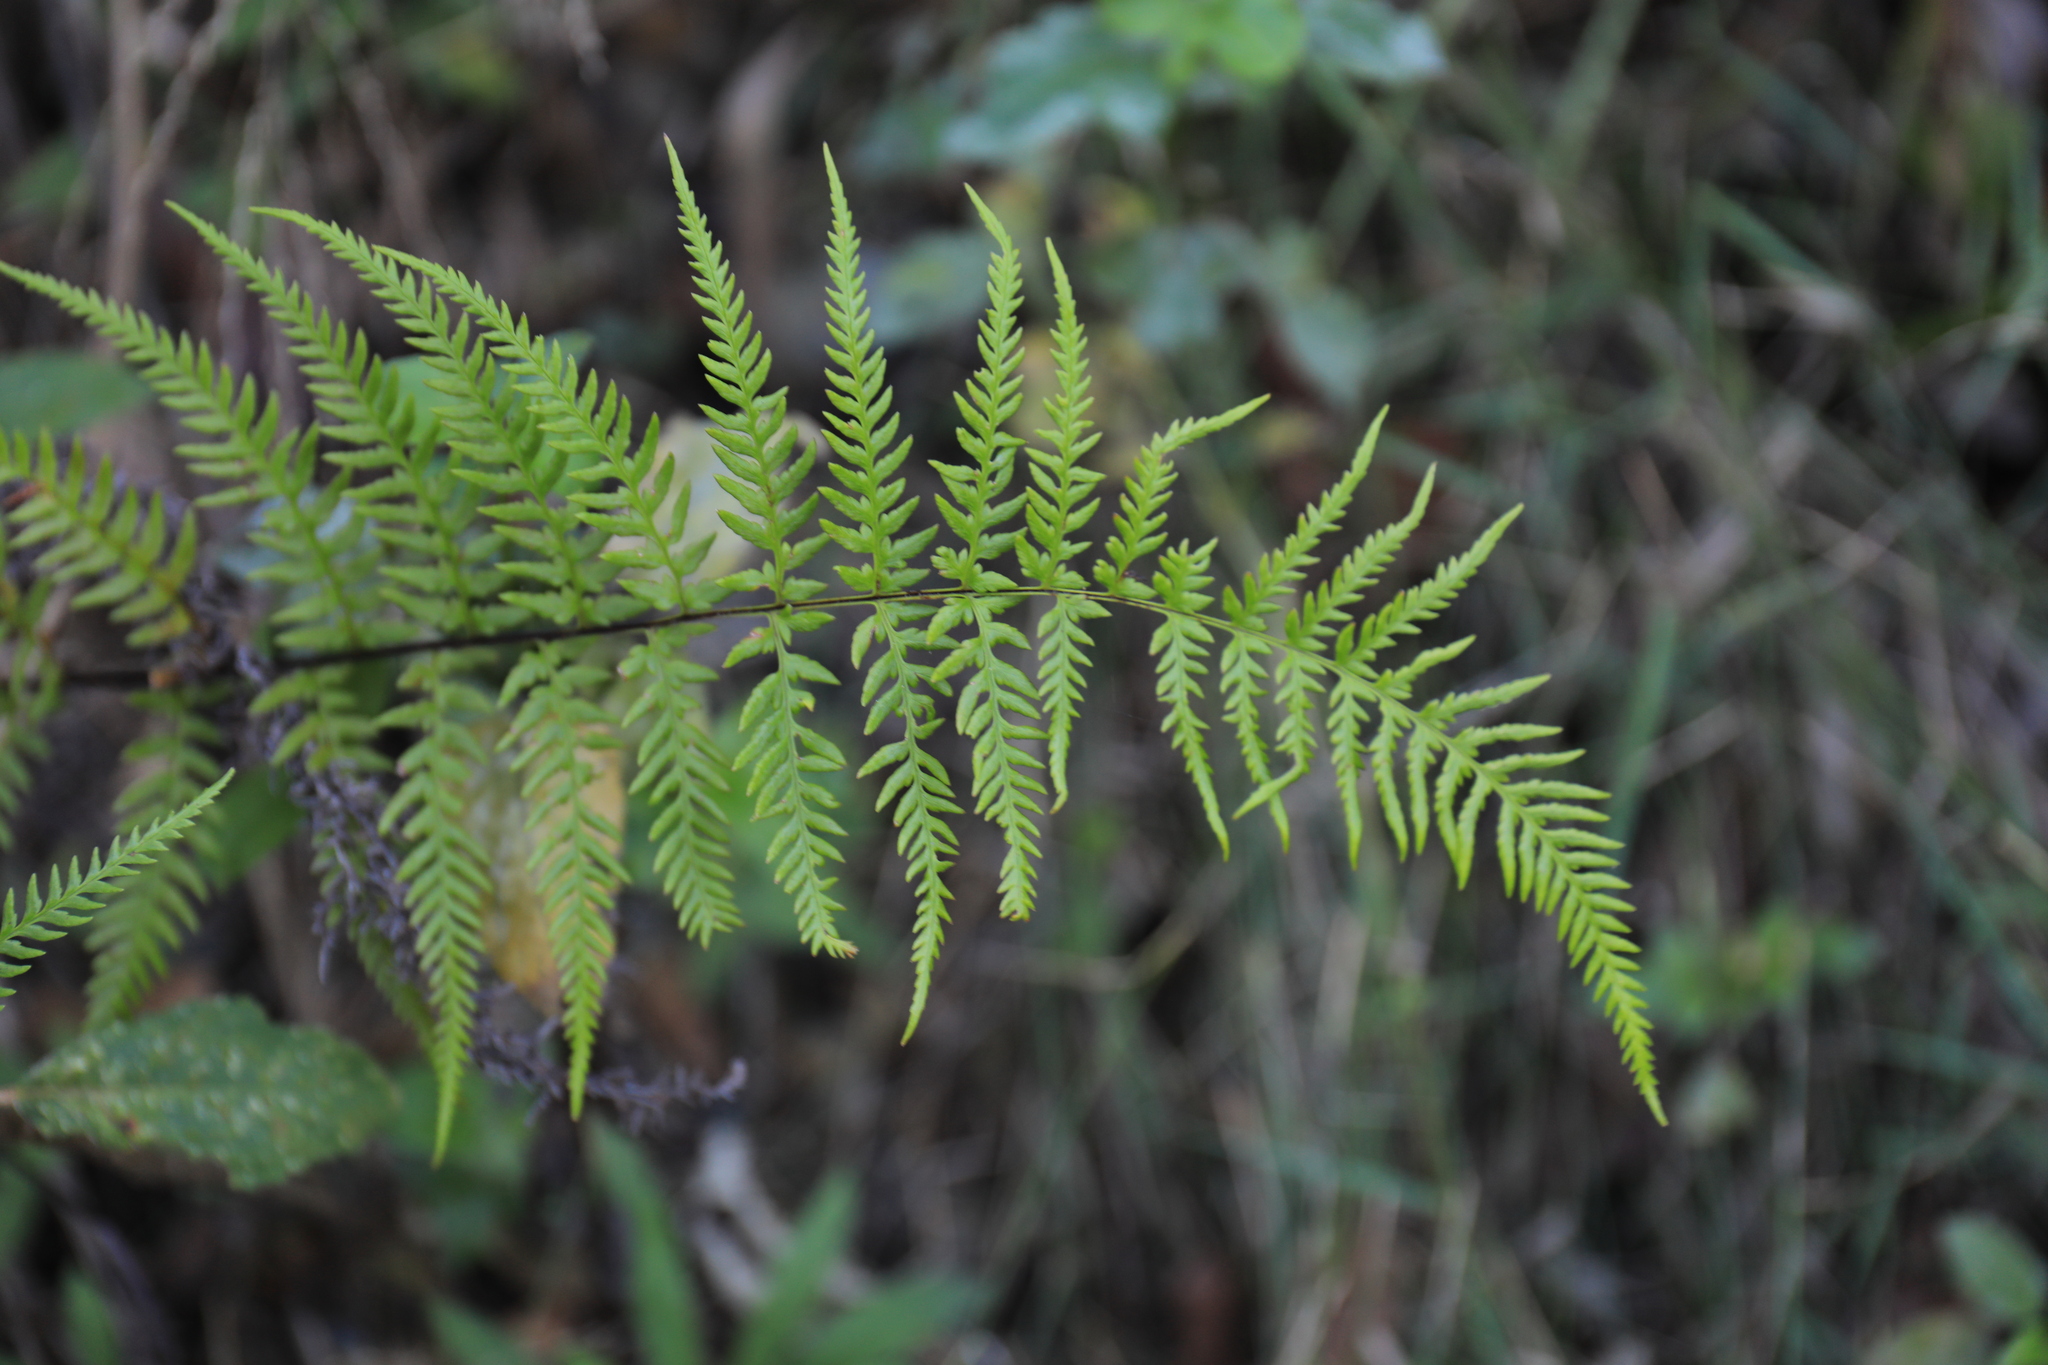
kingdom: Plantae
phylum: Tracheophyta
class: Polypodiopsida
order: Polypodiales
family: Pteridaceae
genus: Pityrogramma
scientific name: Pityrogramma calomelanos
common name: Dixie silverback fern
